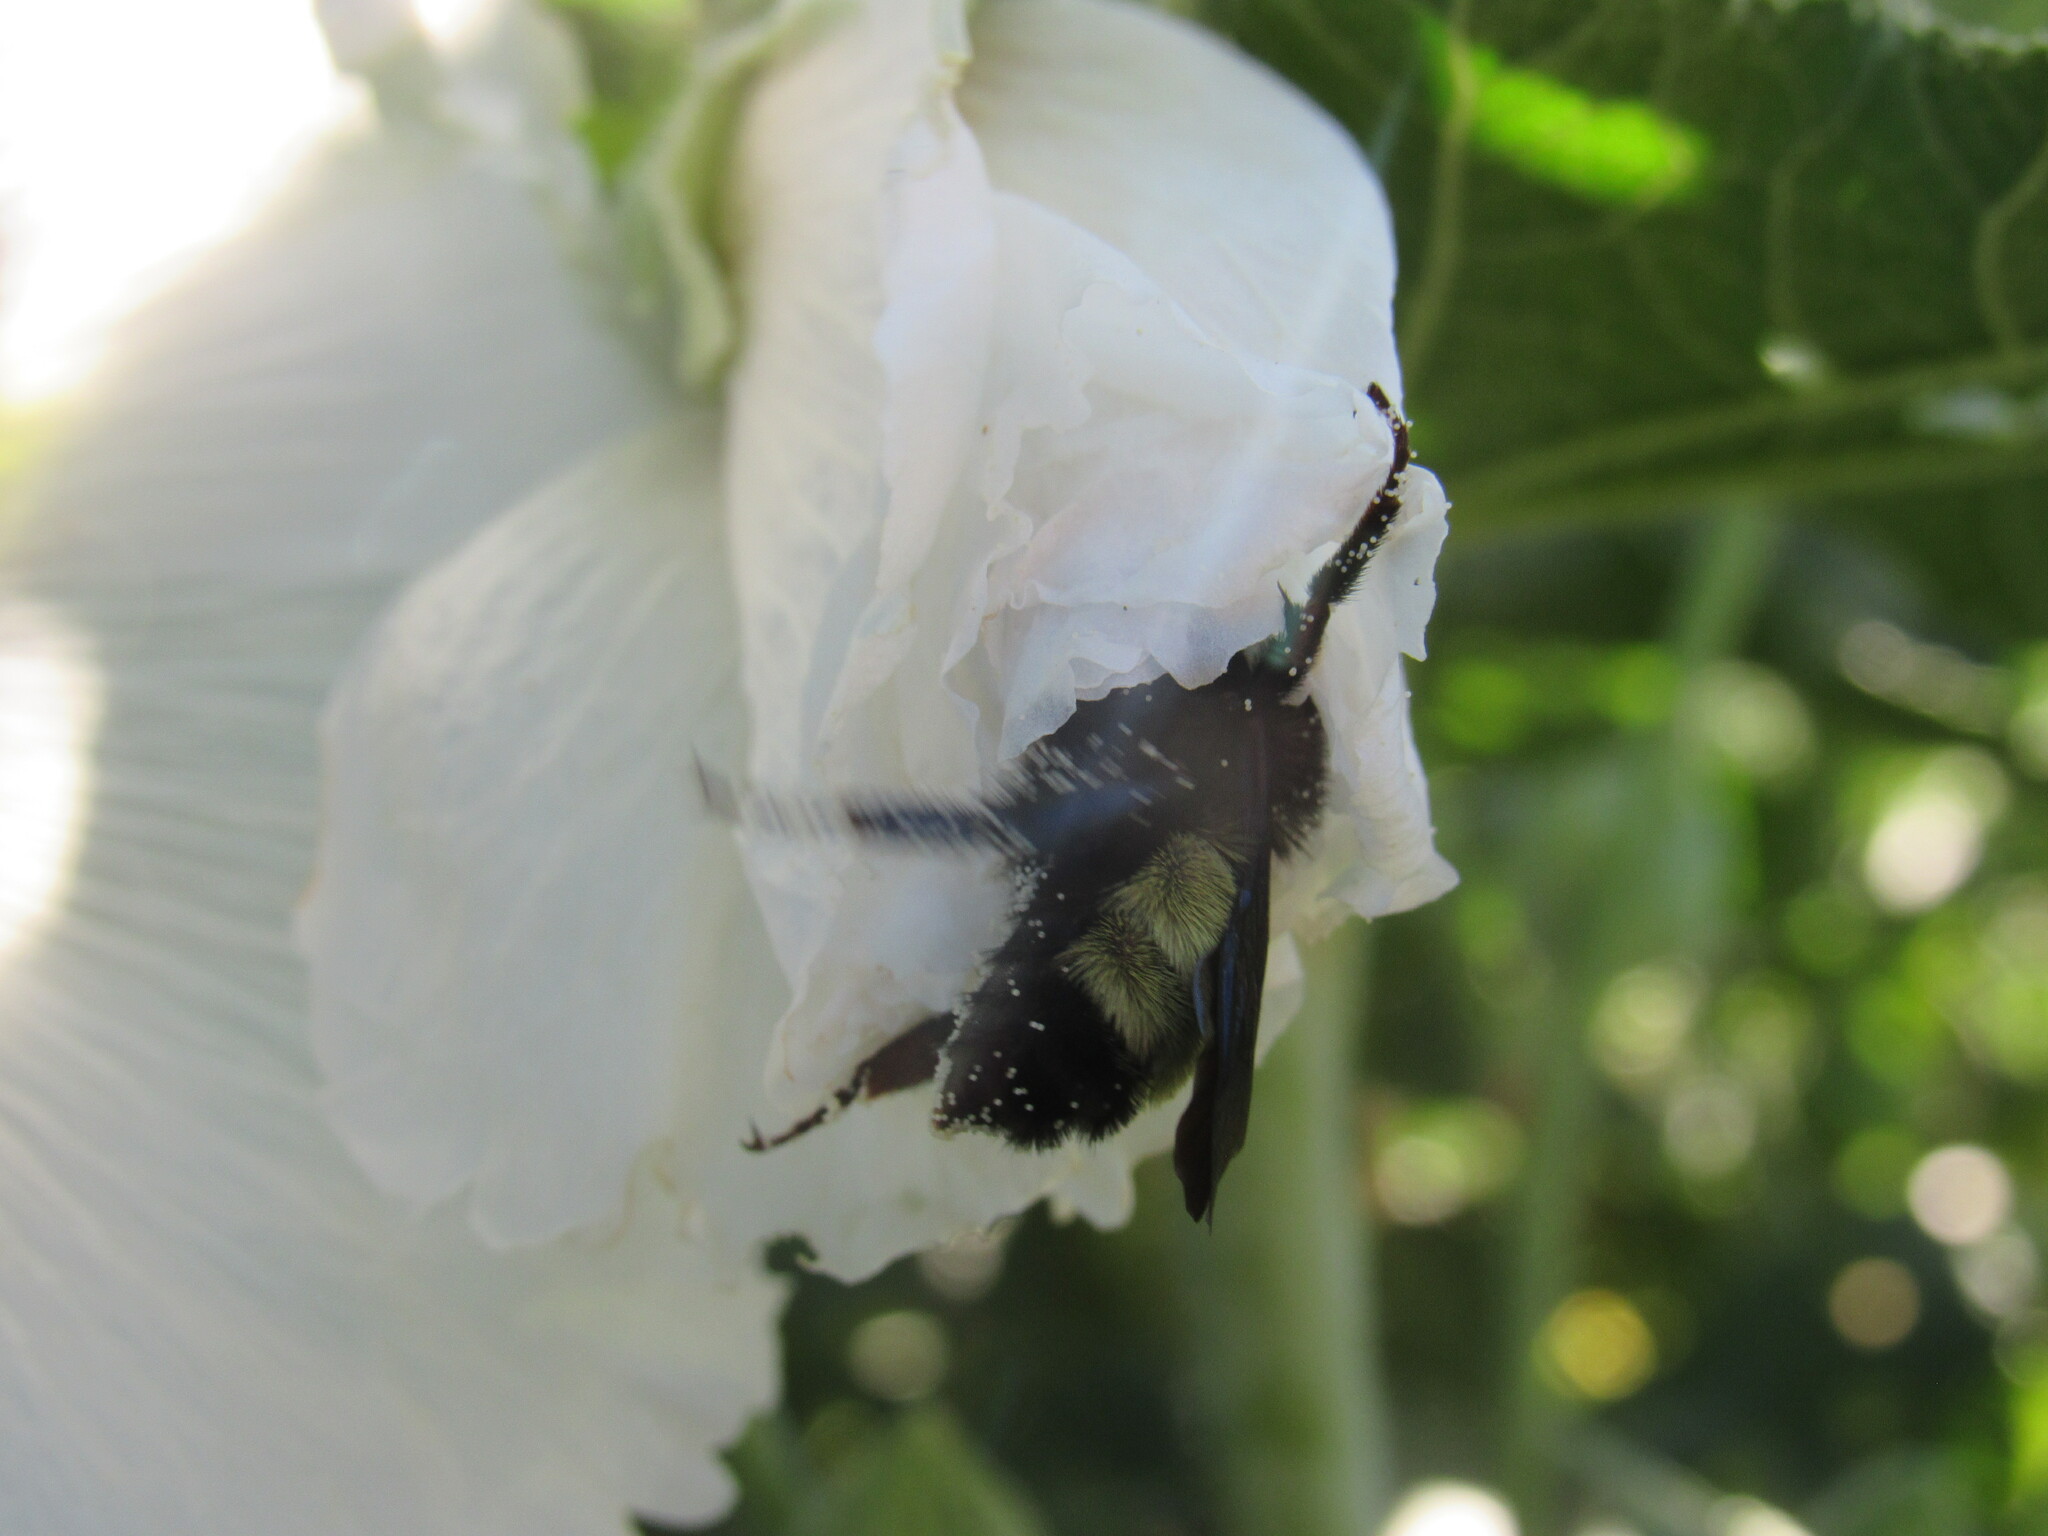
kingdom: Animalia
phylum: Arthropoda
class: Insecta
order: Hymenoptera
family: Apidae
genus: Bombus
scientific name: Bombus pensylvanicus
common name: Bumble bee
